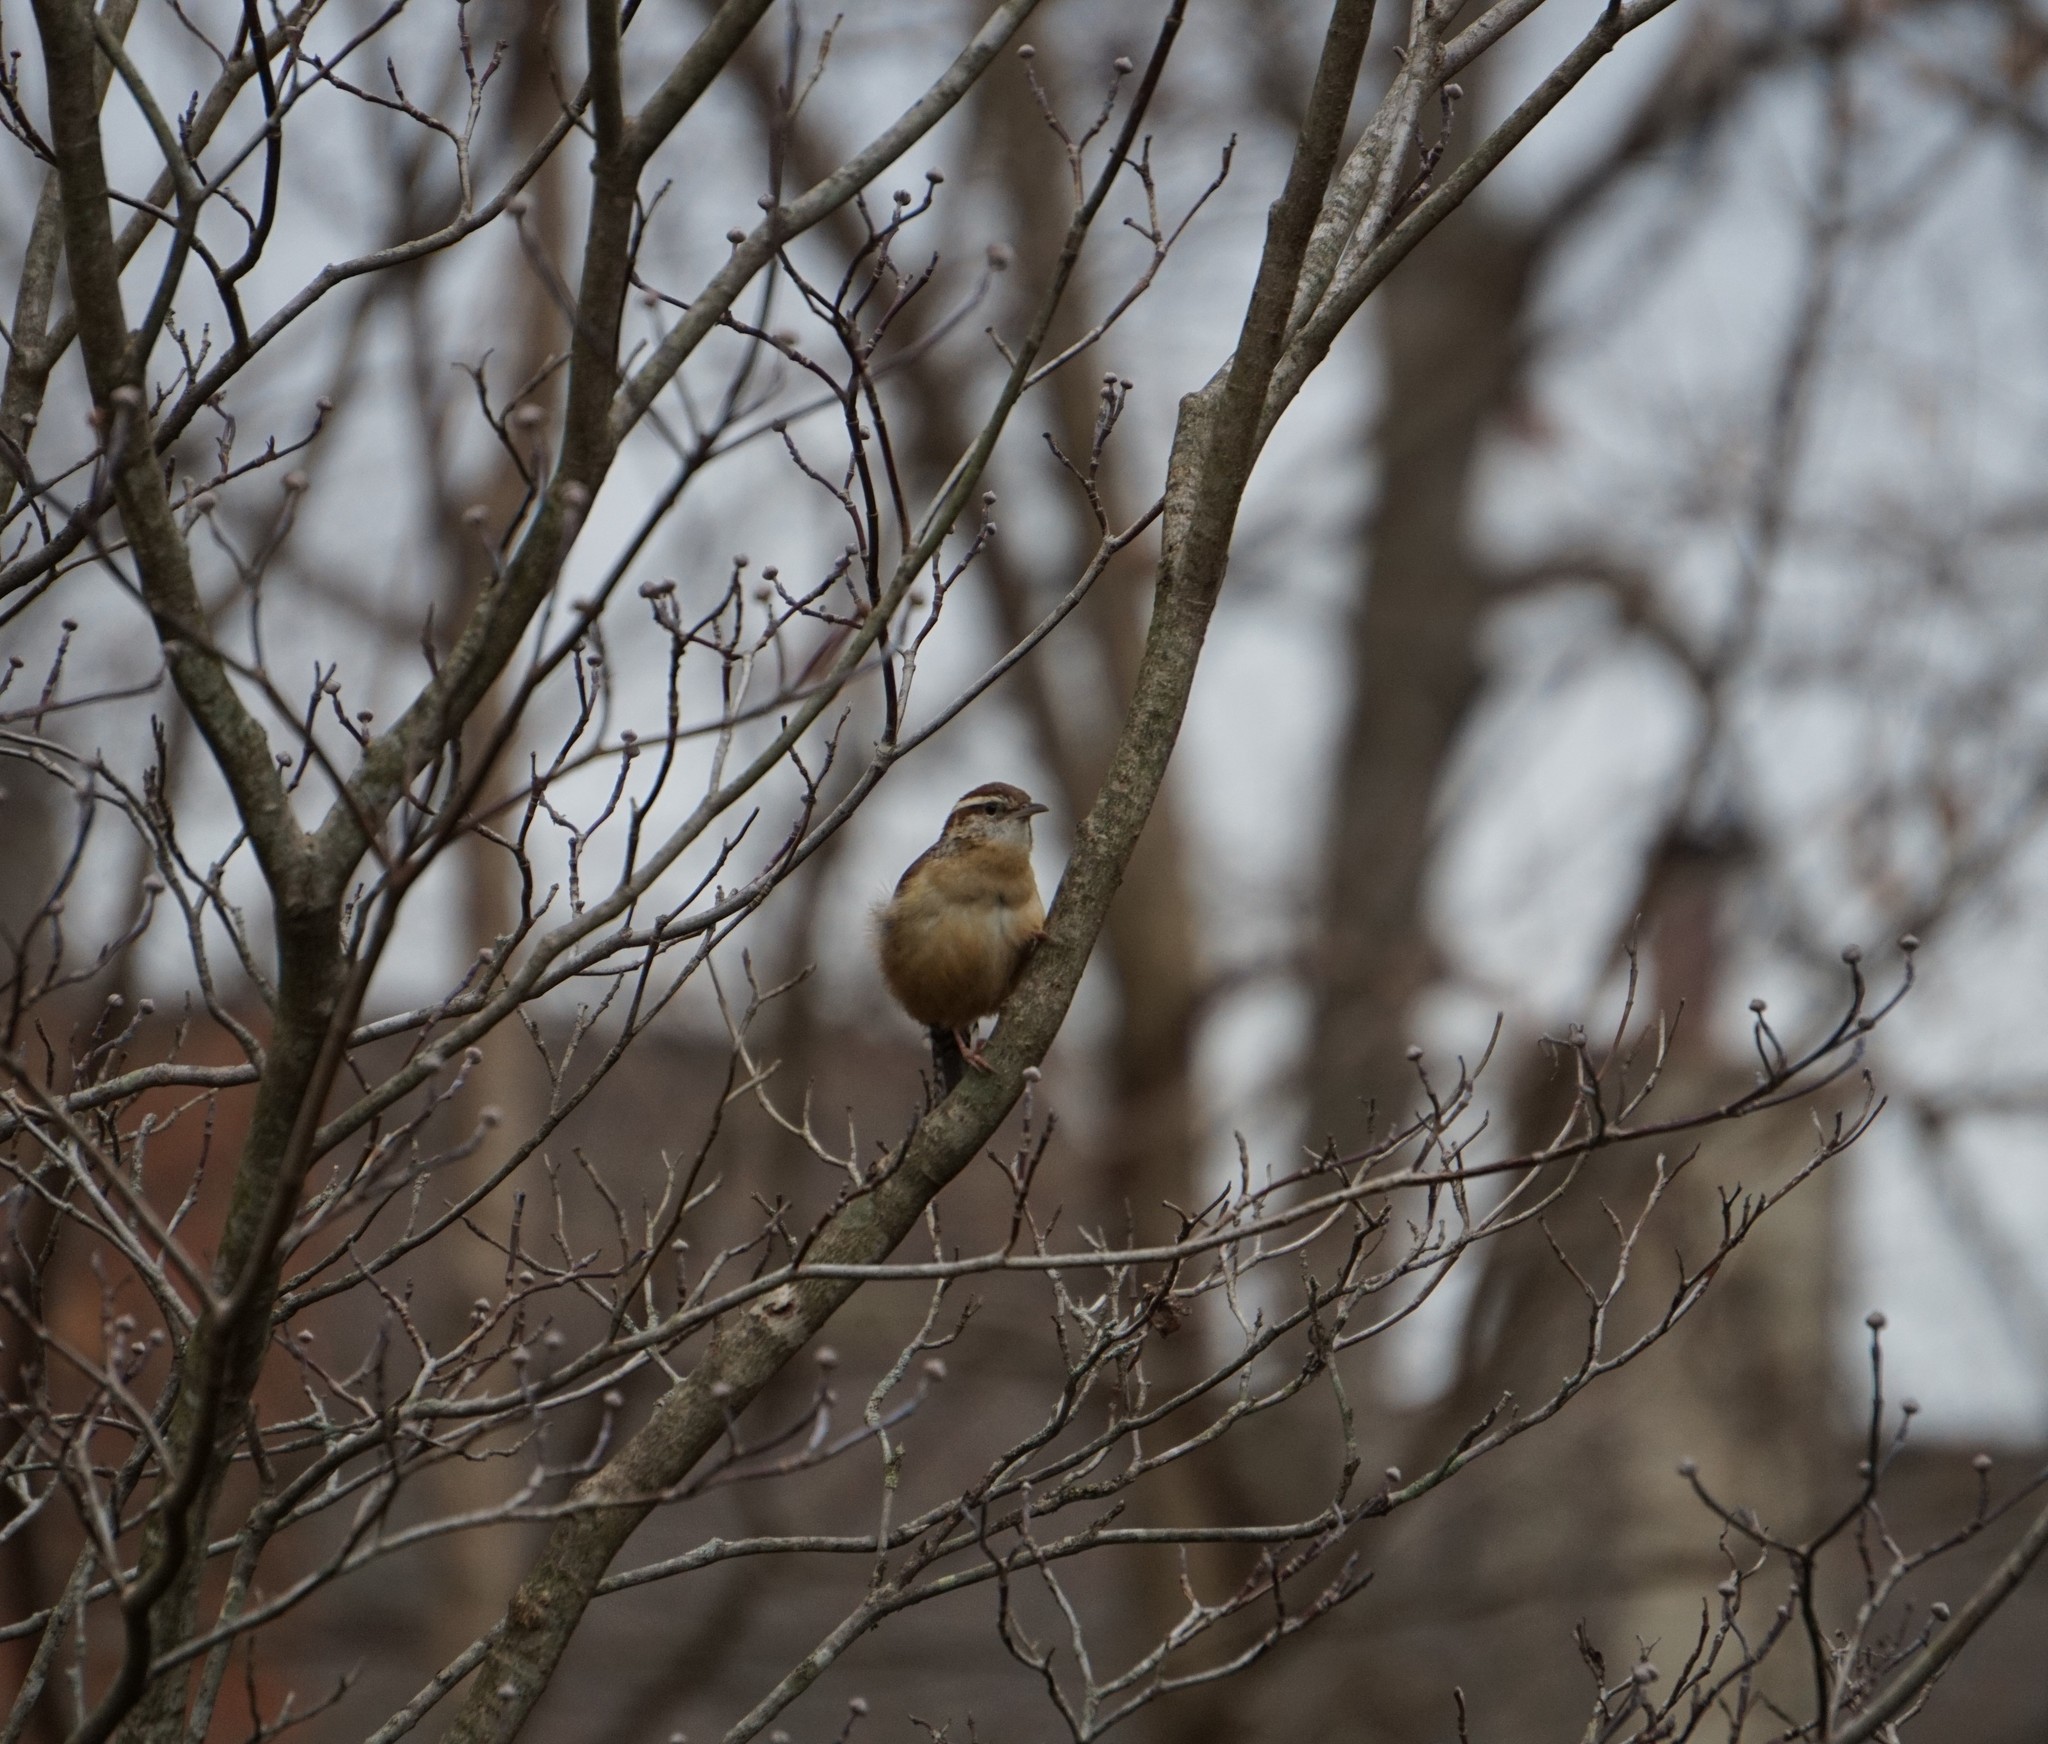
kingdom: Animalia
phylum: Chordata
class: Aves
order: Passeriformes
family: Troglodytidae
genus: Thryothorus
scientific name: Thryothorus ludovicianus
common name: Carolina wren
